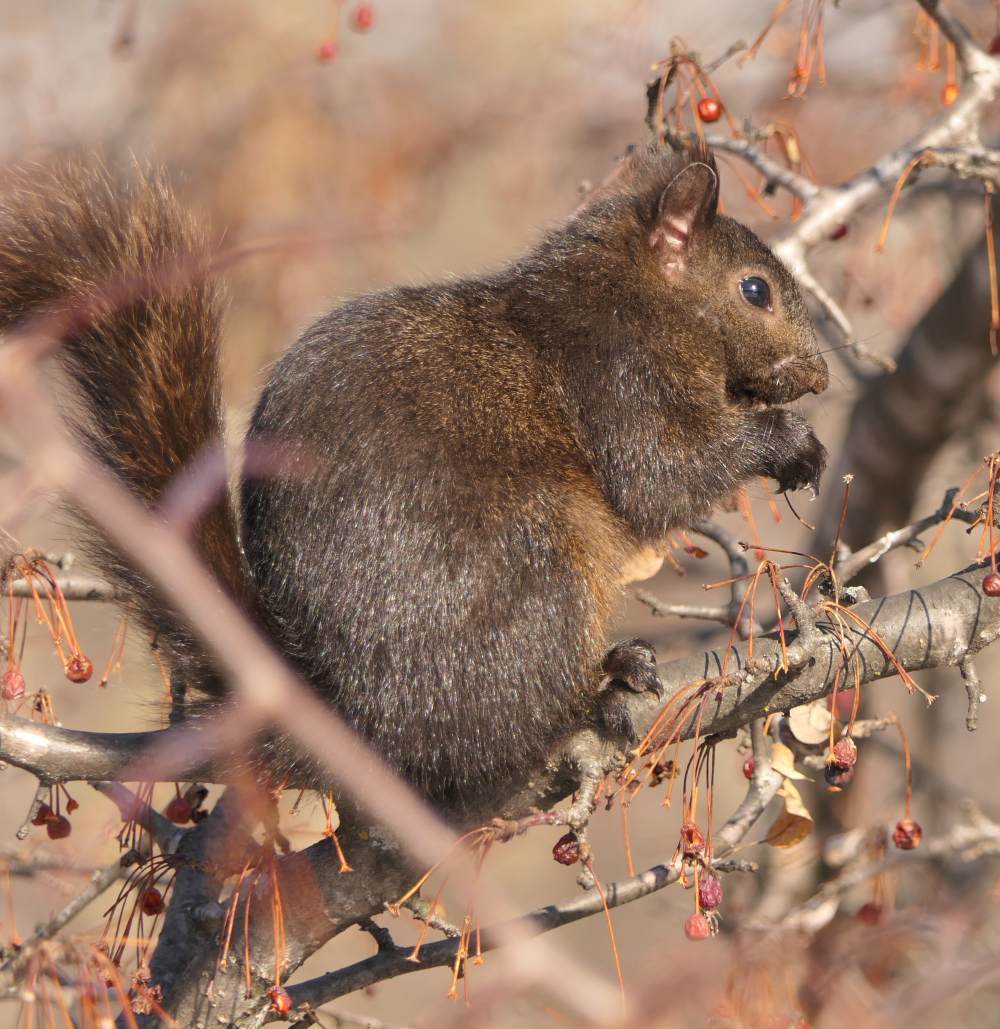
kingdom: Animalia
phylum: Chordata
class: Mammalia
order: Rodentia
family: Sciuridae
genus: Sciurus
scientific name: Sciurus carolinensis
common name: Eastern gray squirrel
